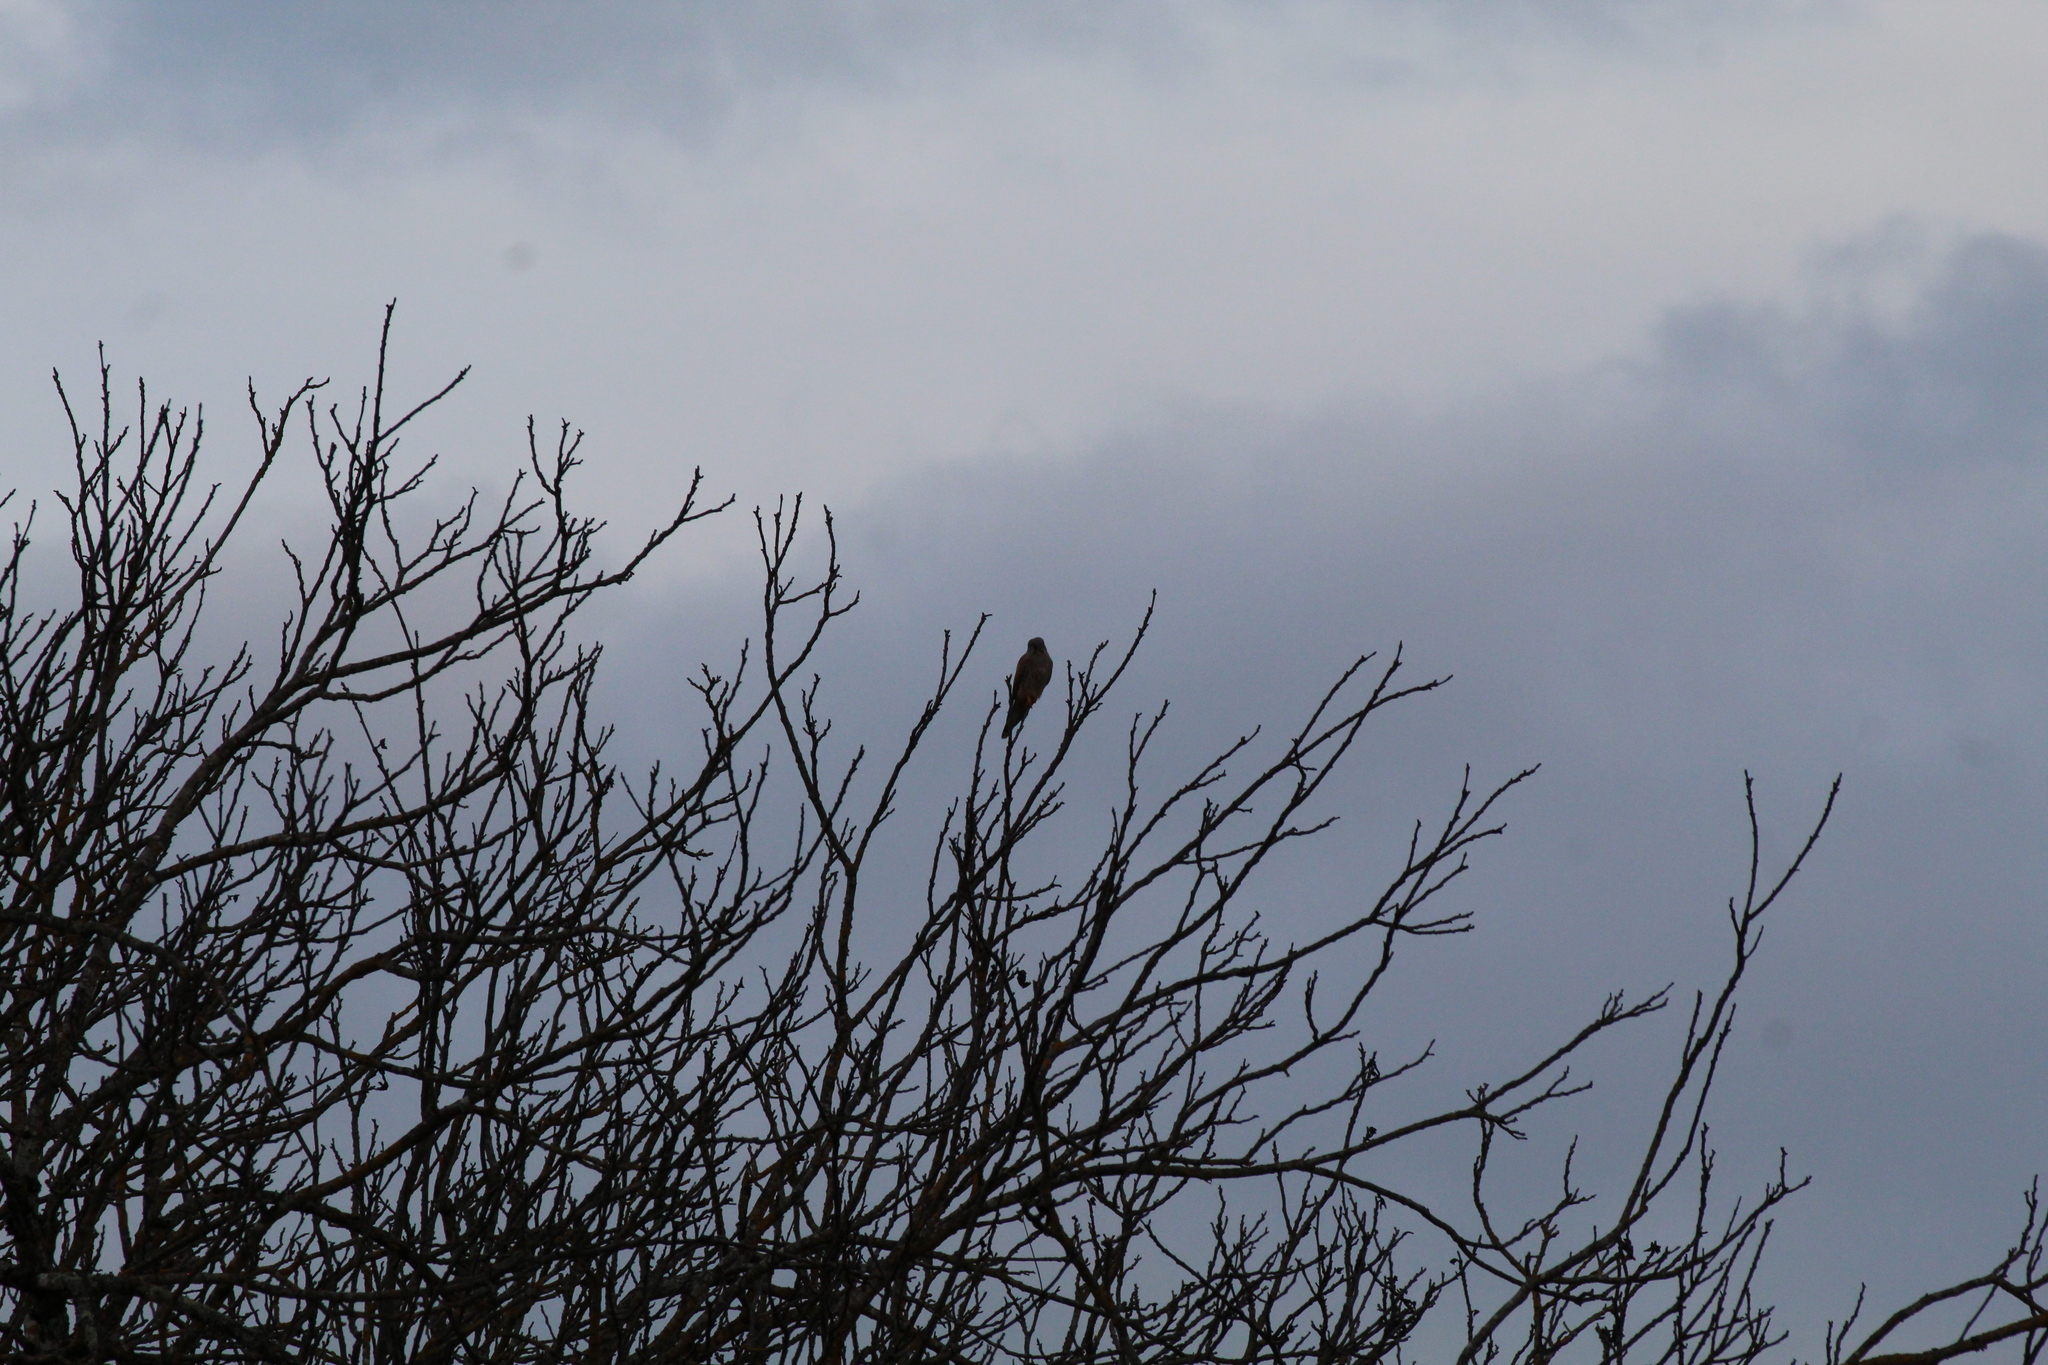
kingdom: Animalia
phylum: Chordata
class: Aves
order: Falconiformes
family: Falconidae
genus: Falco
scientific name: Falco tinnunculus
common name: Common kestrel
